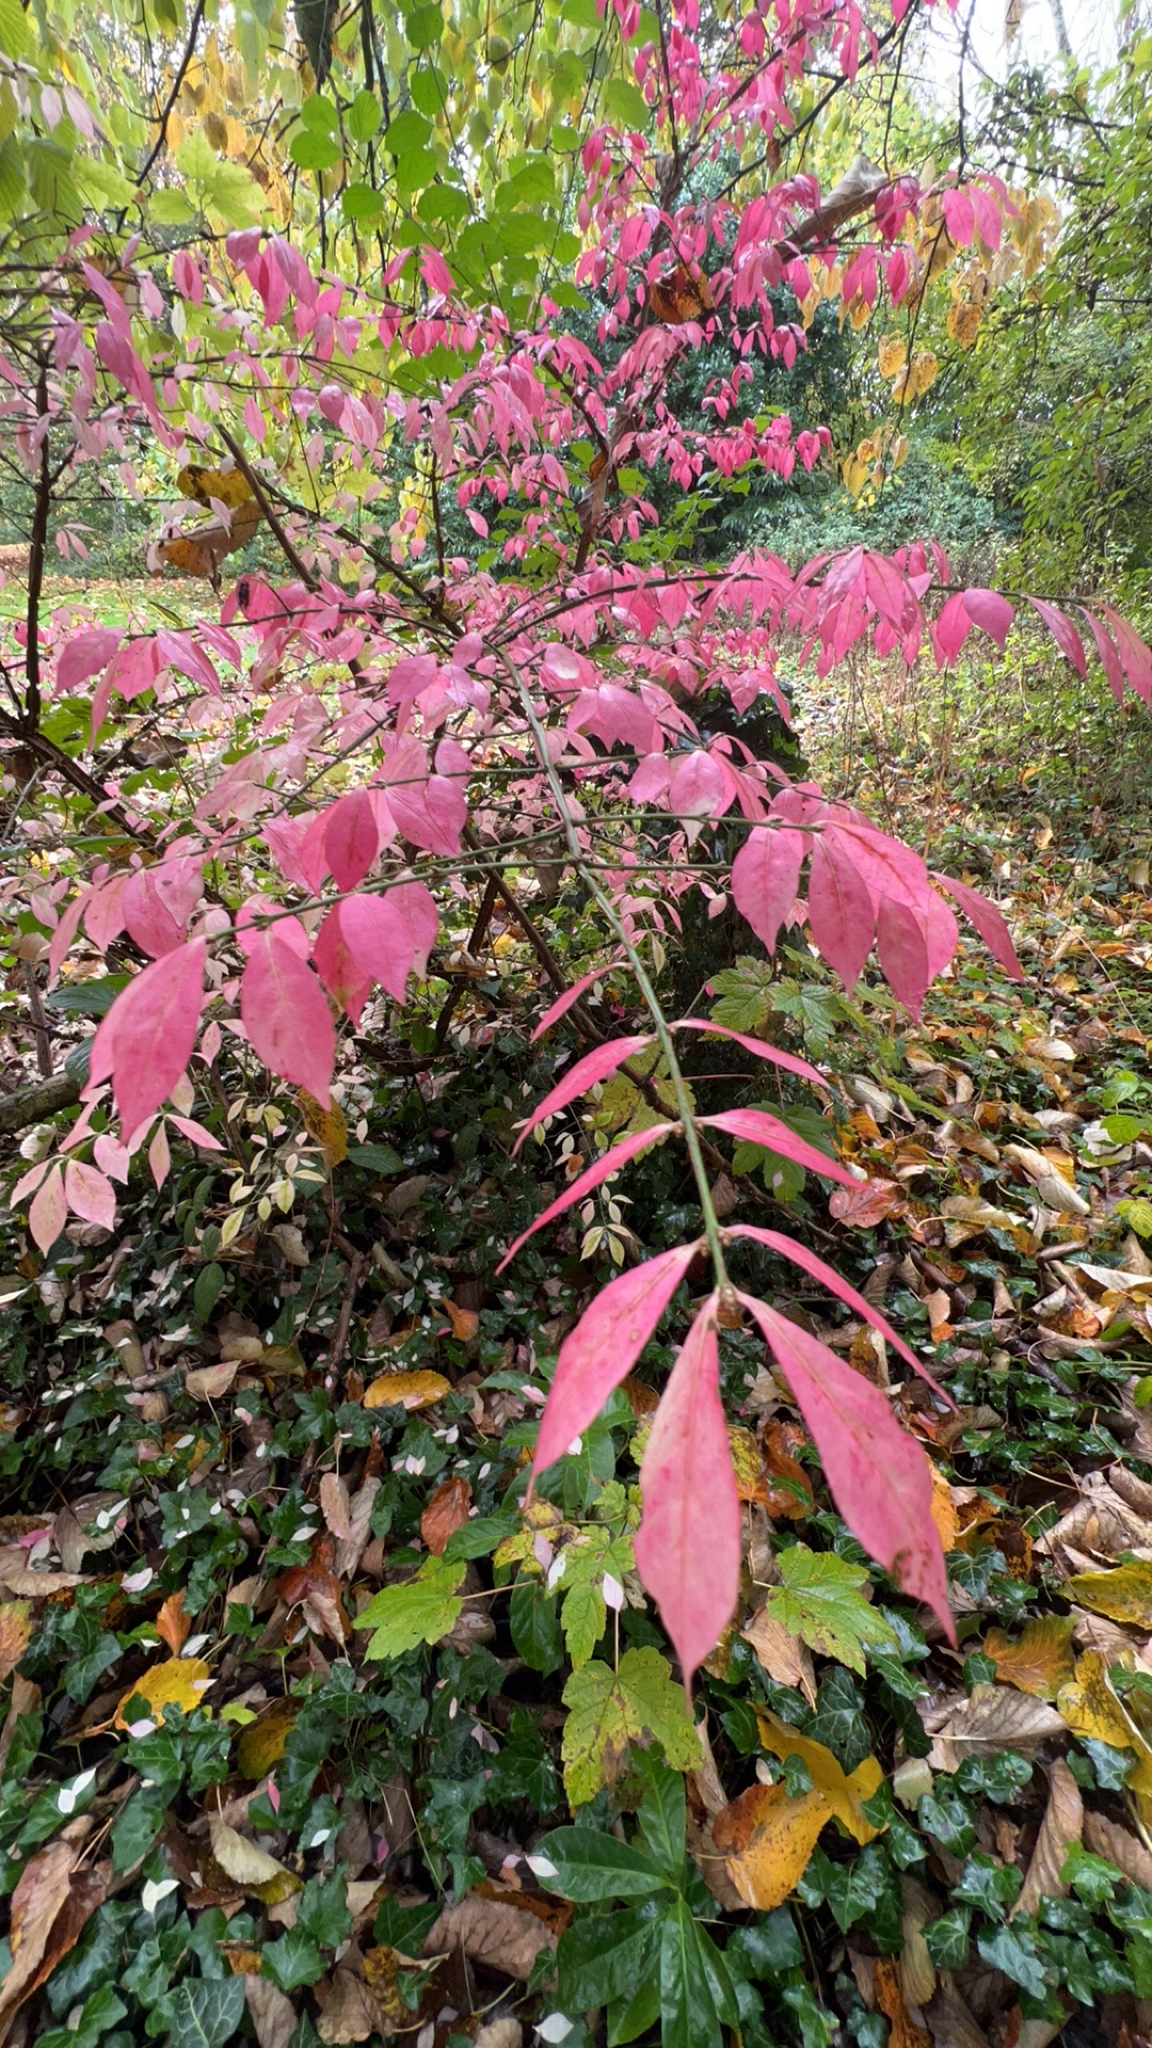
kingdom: Plantae
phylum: Tracheophyta
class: Magnoliopsida
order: Celastrales
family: Celastraceae
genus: Euonymus
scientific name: Euonymus alatus
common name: Winged euonymus
